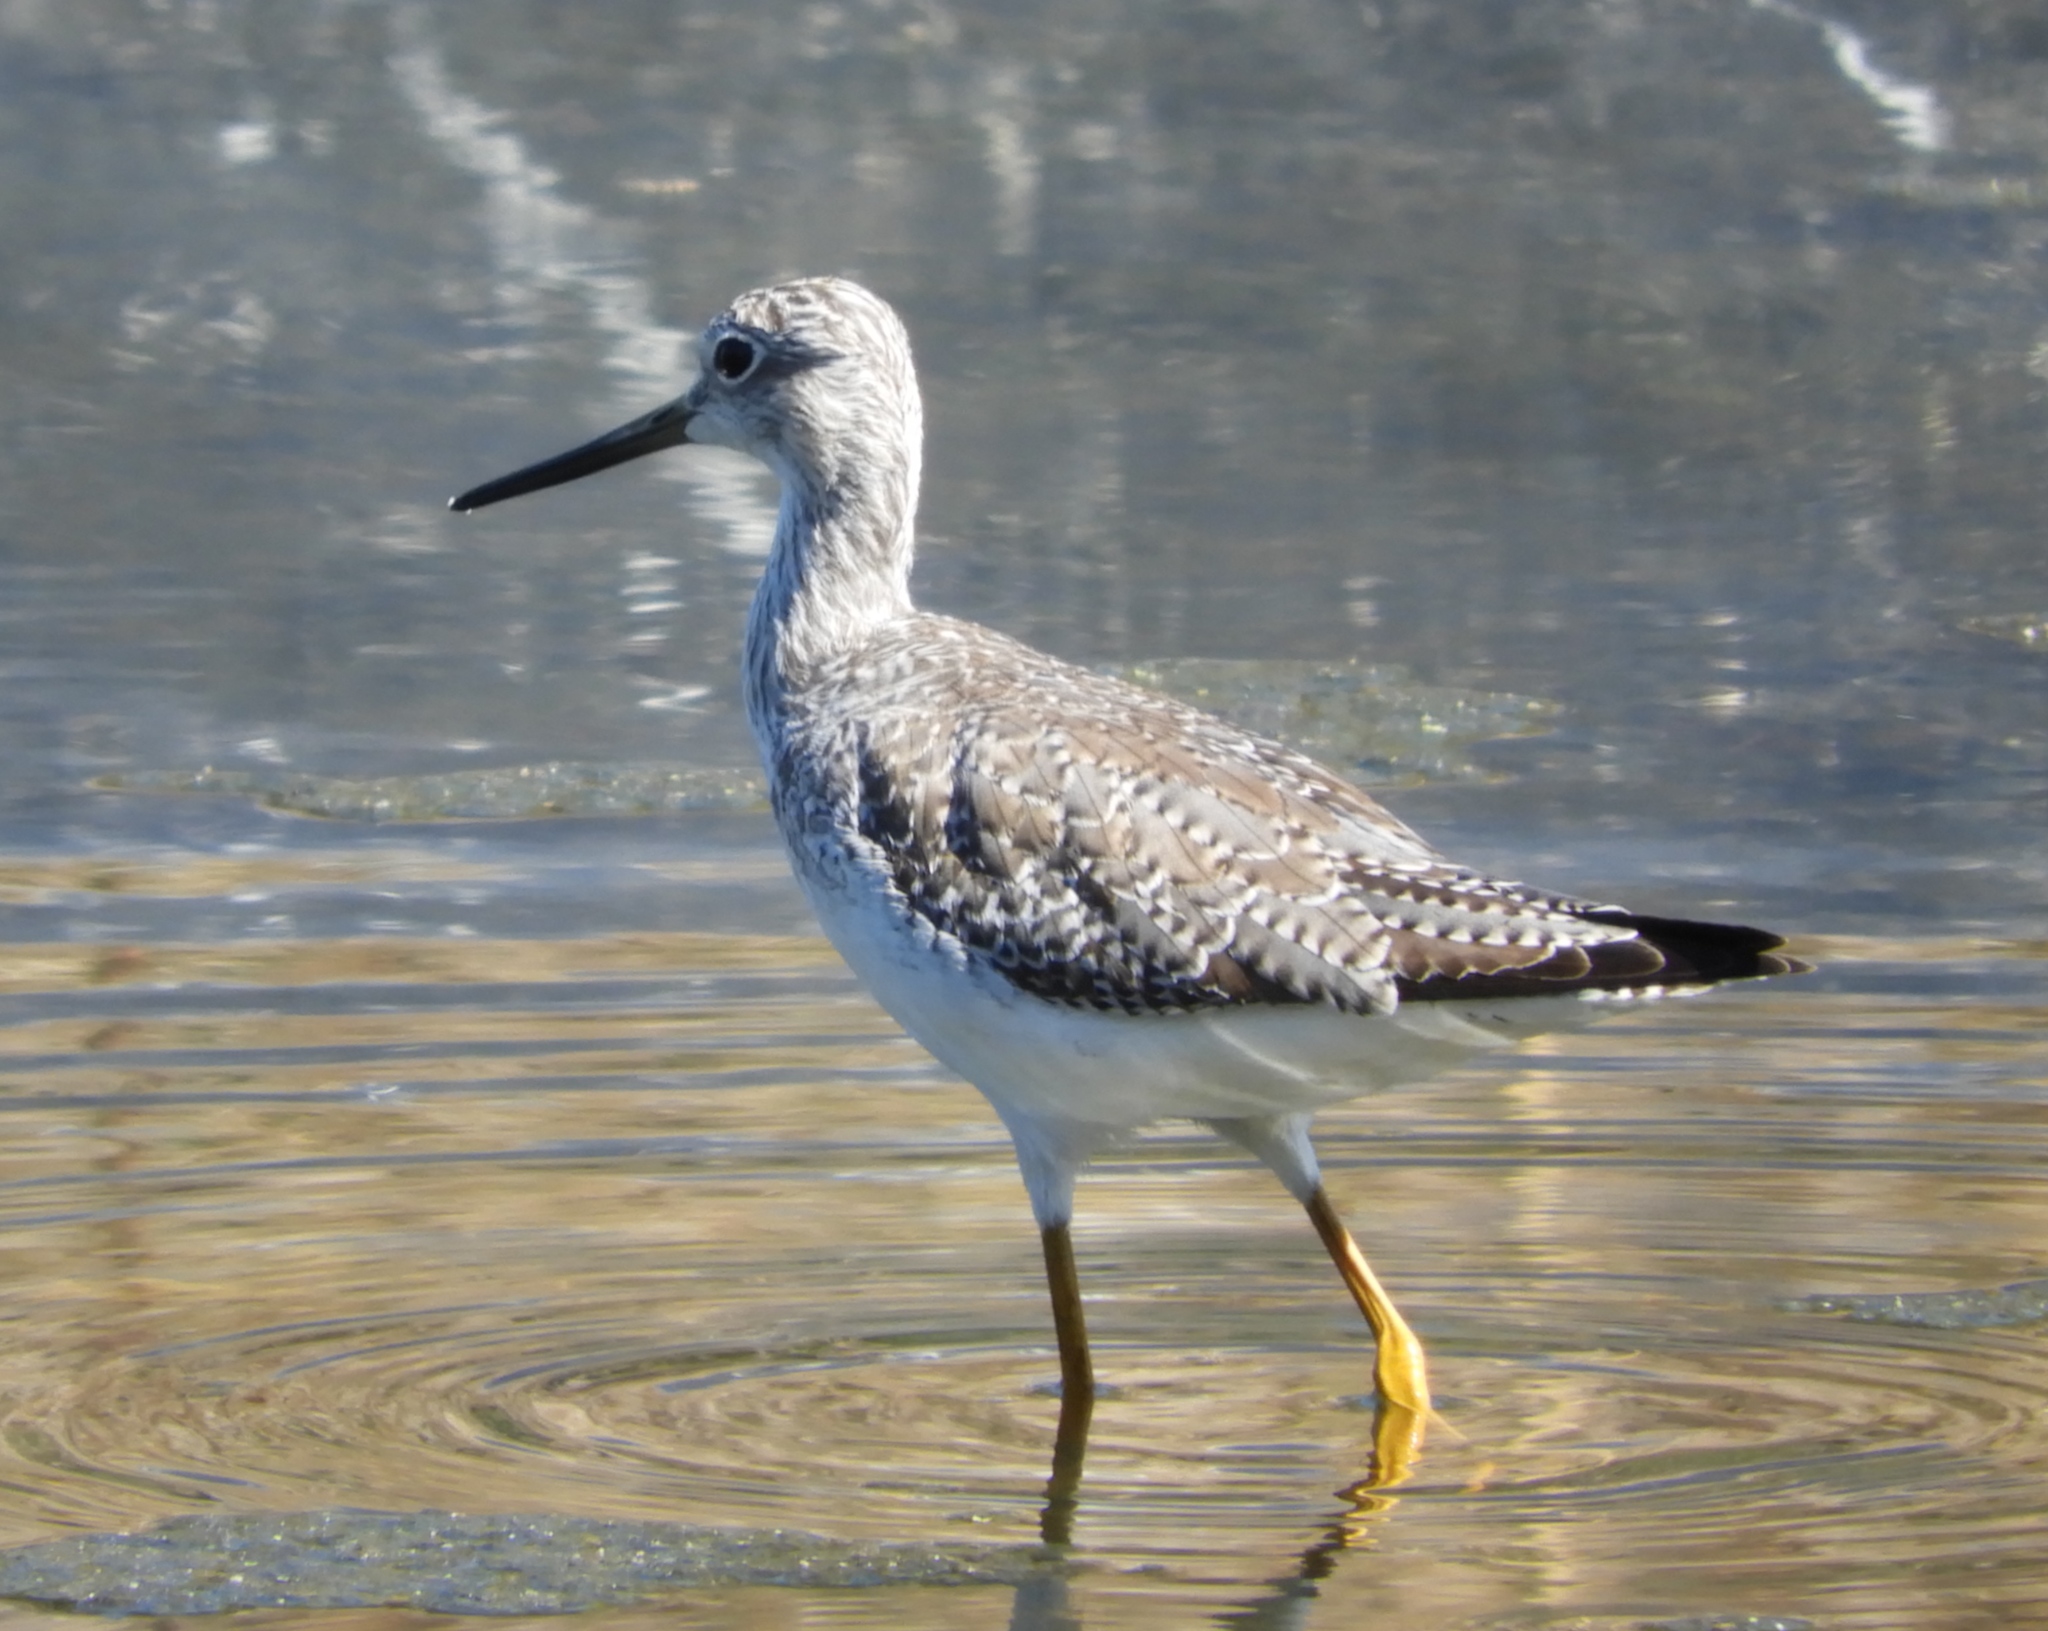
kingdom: Animalia
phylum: Chordata
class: Aves
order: Charadriiformes
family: Scolopacidae
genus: Tringa
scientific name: Tringa melanoleuca
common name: Greater yellowlegs
